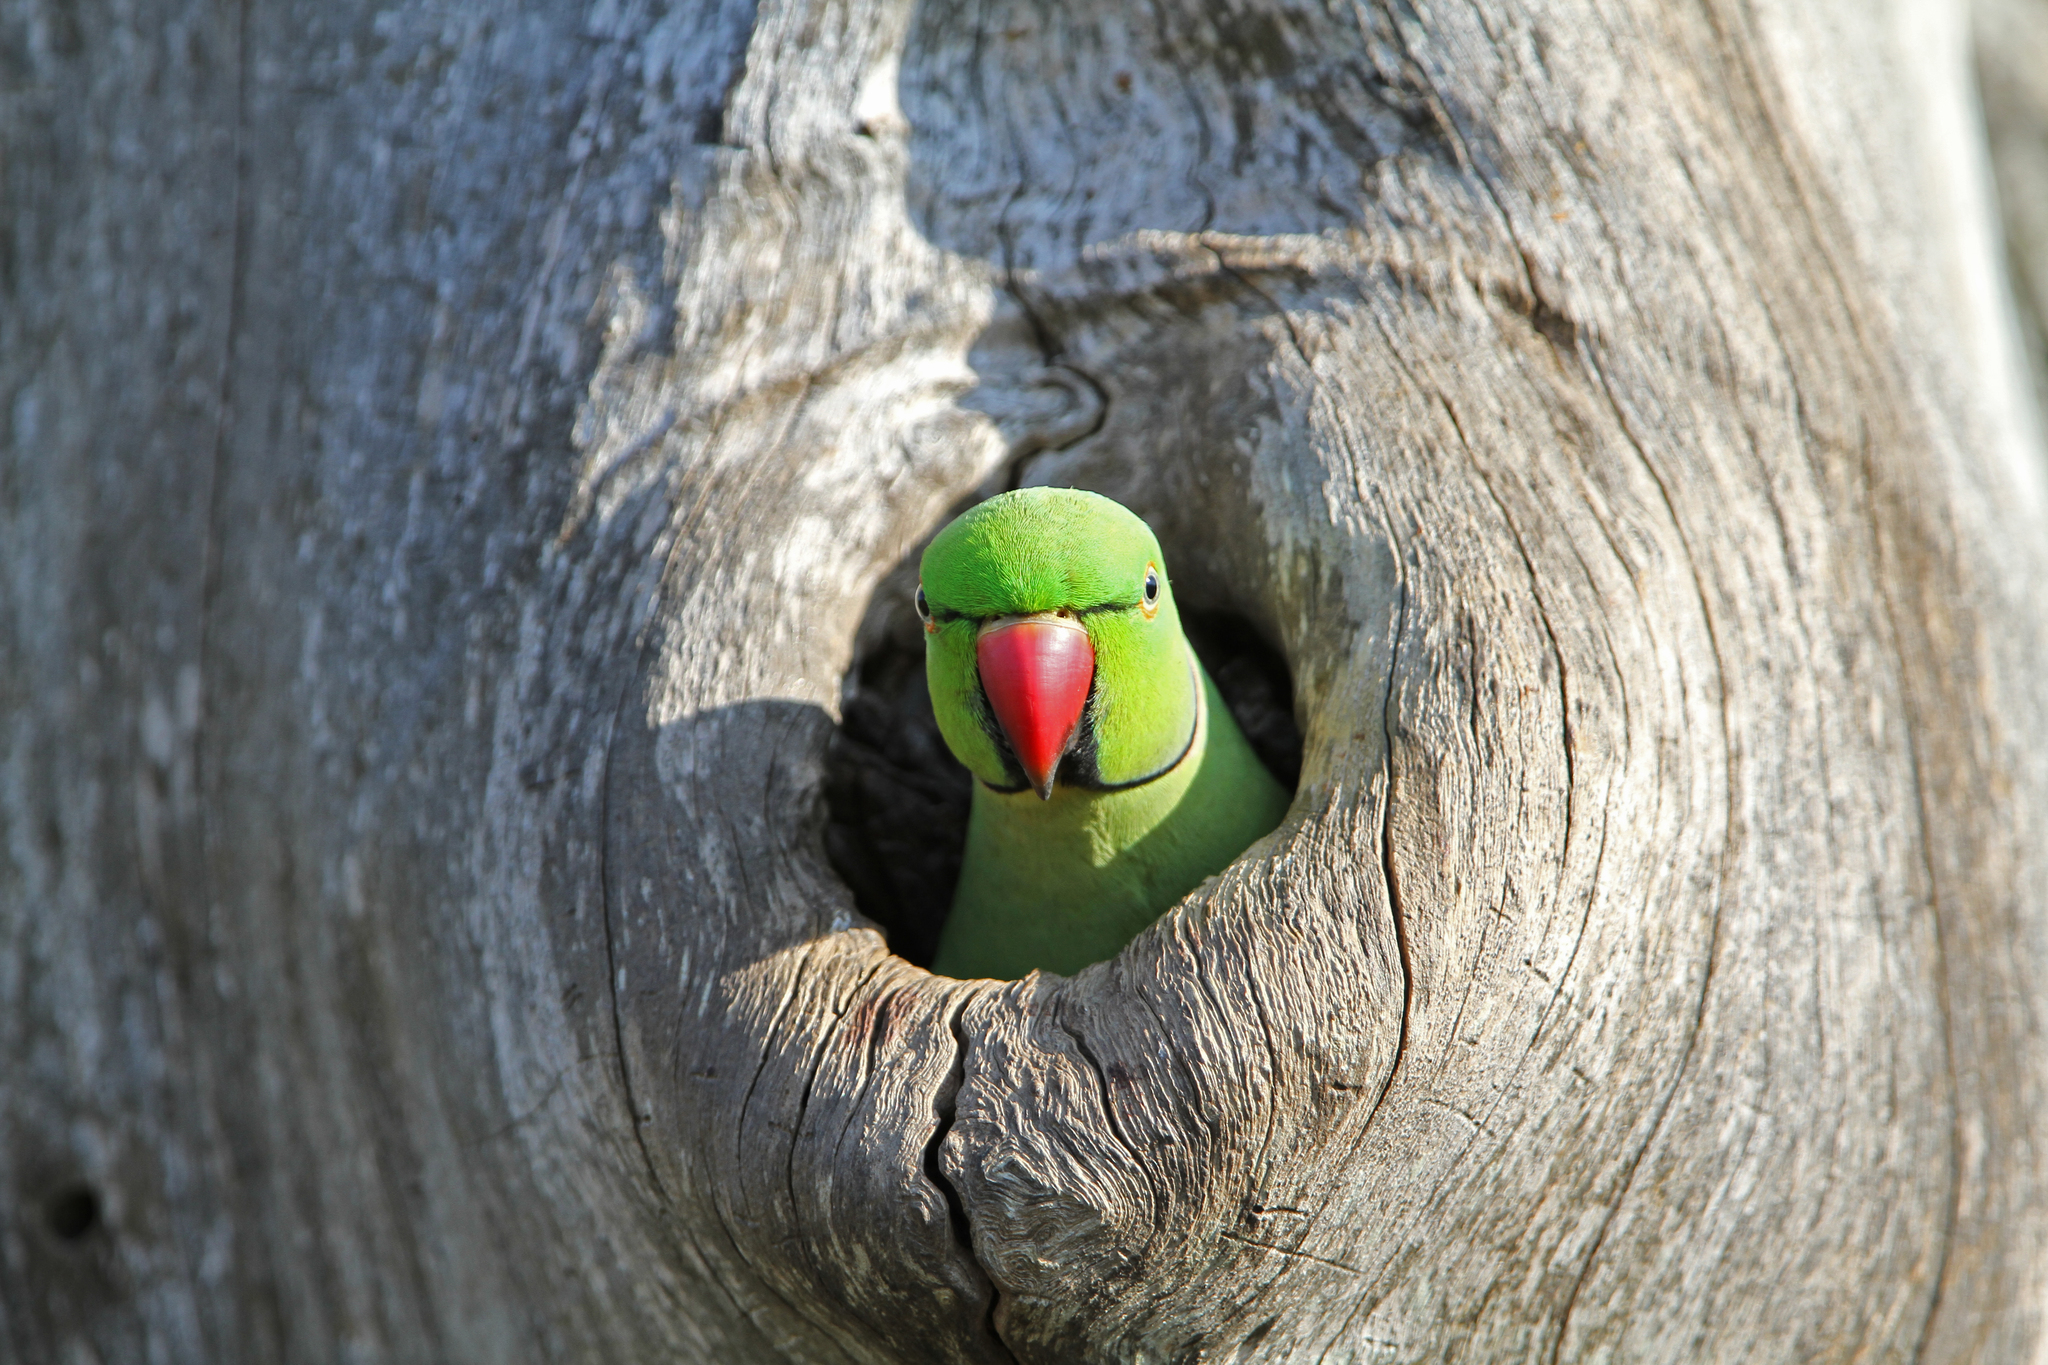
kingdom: Animalia
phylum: Chordata
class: Aves
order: Psittaciformes
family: Psittacidae
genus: Psittacula
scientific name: Psittacula krameri
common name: Rose-ringed parakeet
